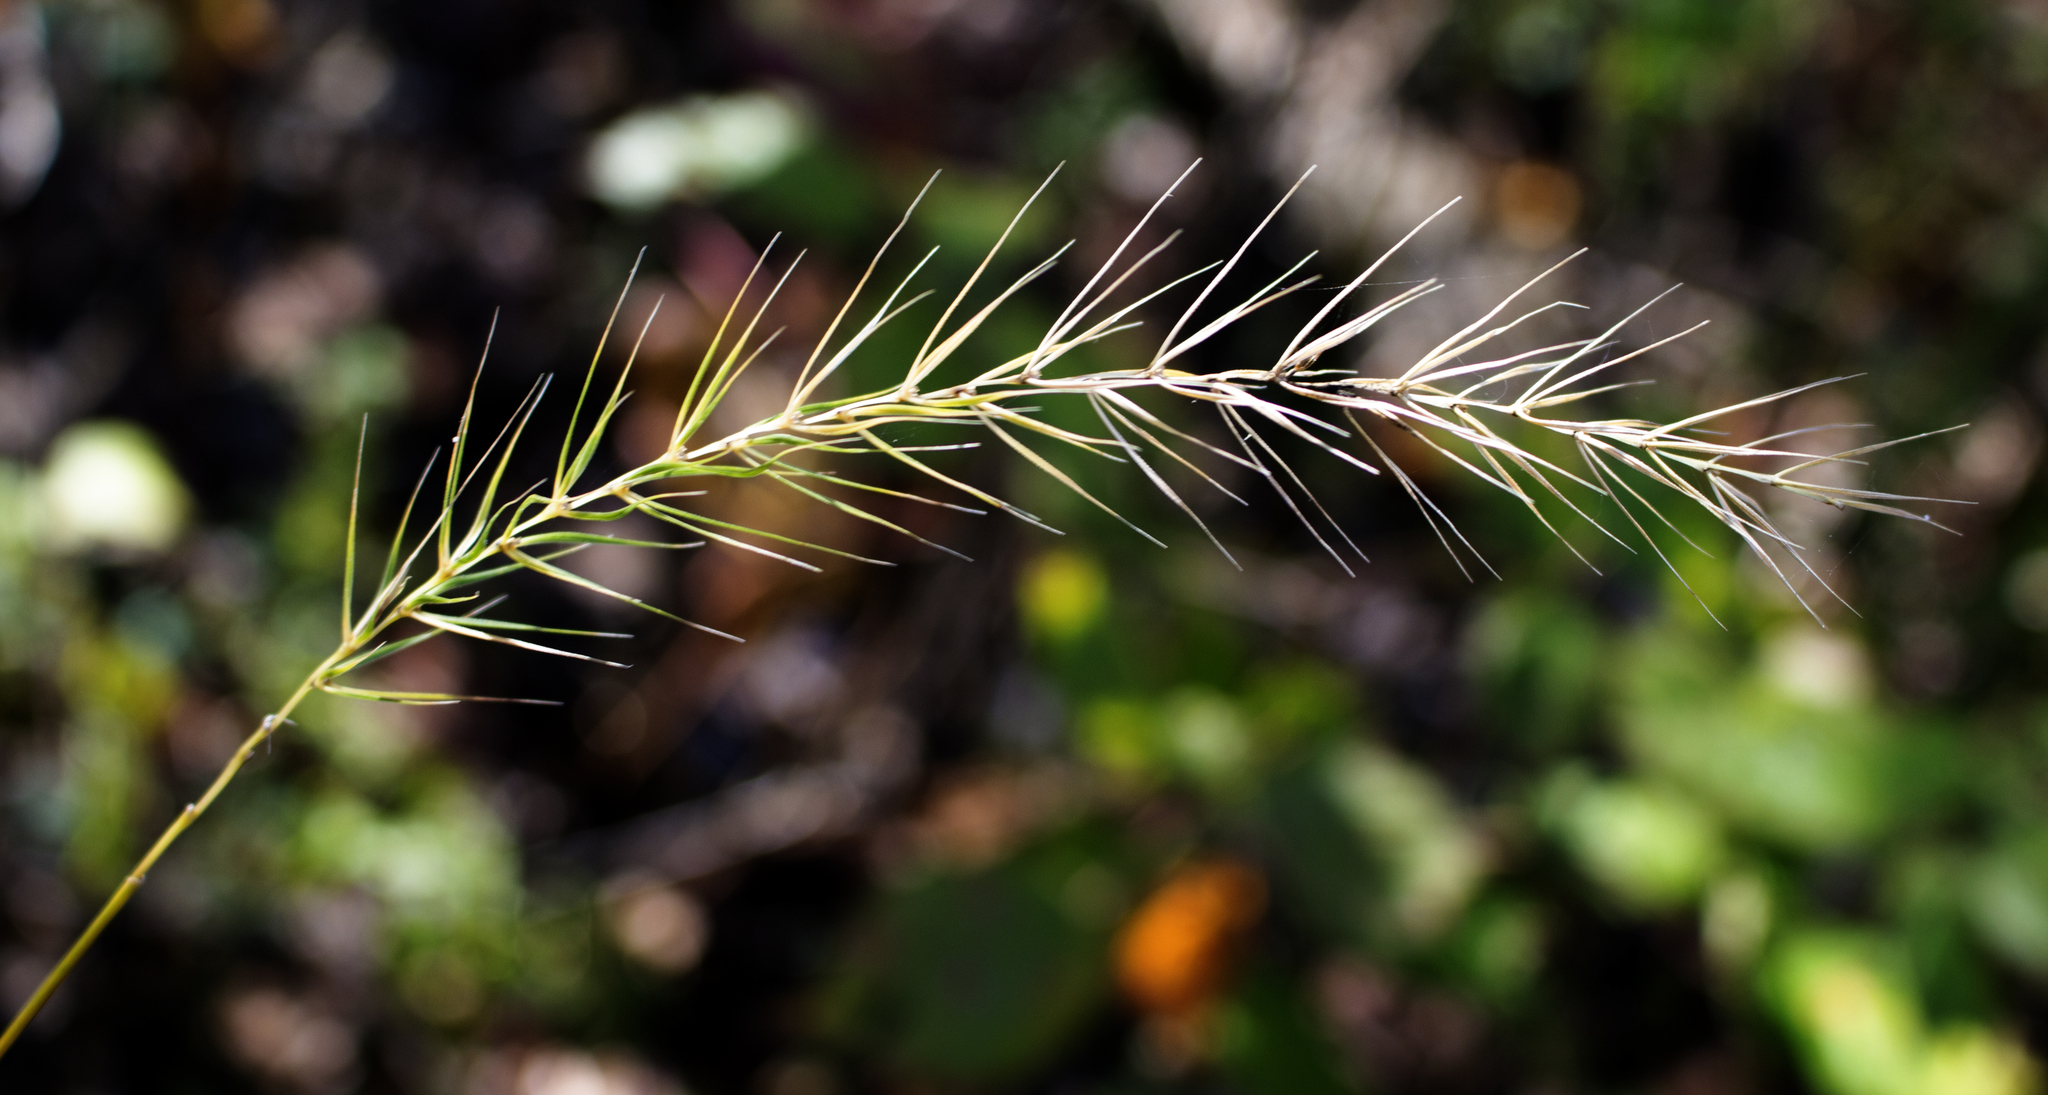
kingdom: Plantae
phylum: Tracheophyta
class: Liliopsida
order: Poales
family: Poaceae
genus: Elymus
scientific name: Elymus villosus
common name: Downy wild rye
